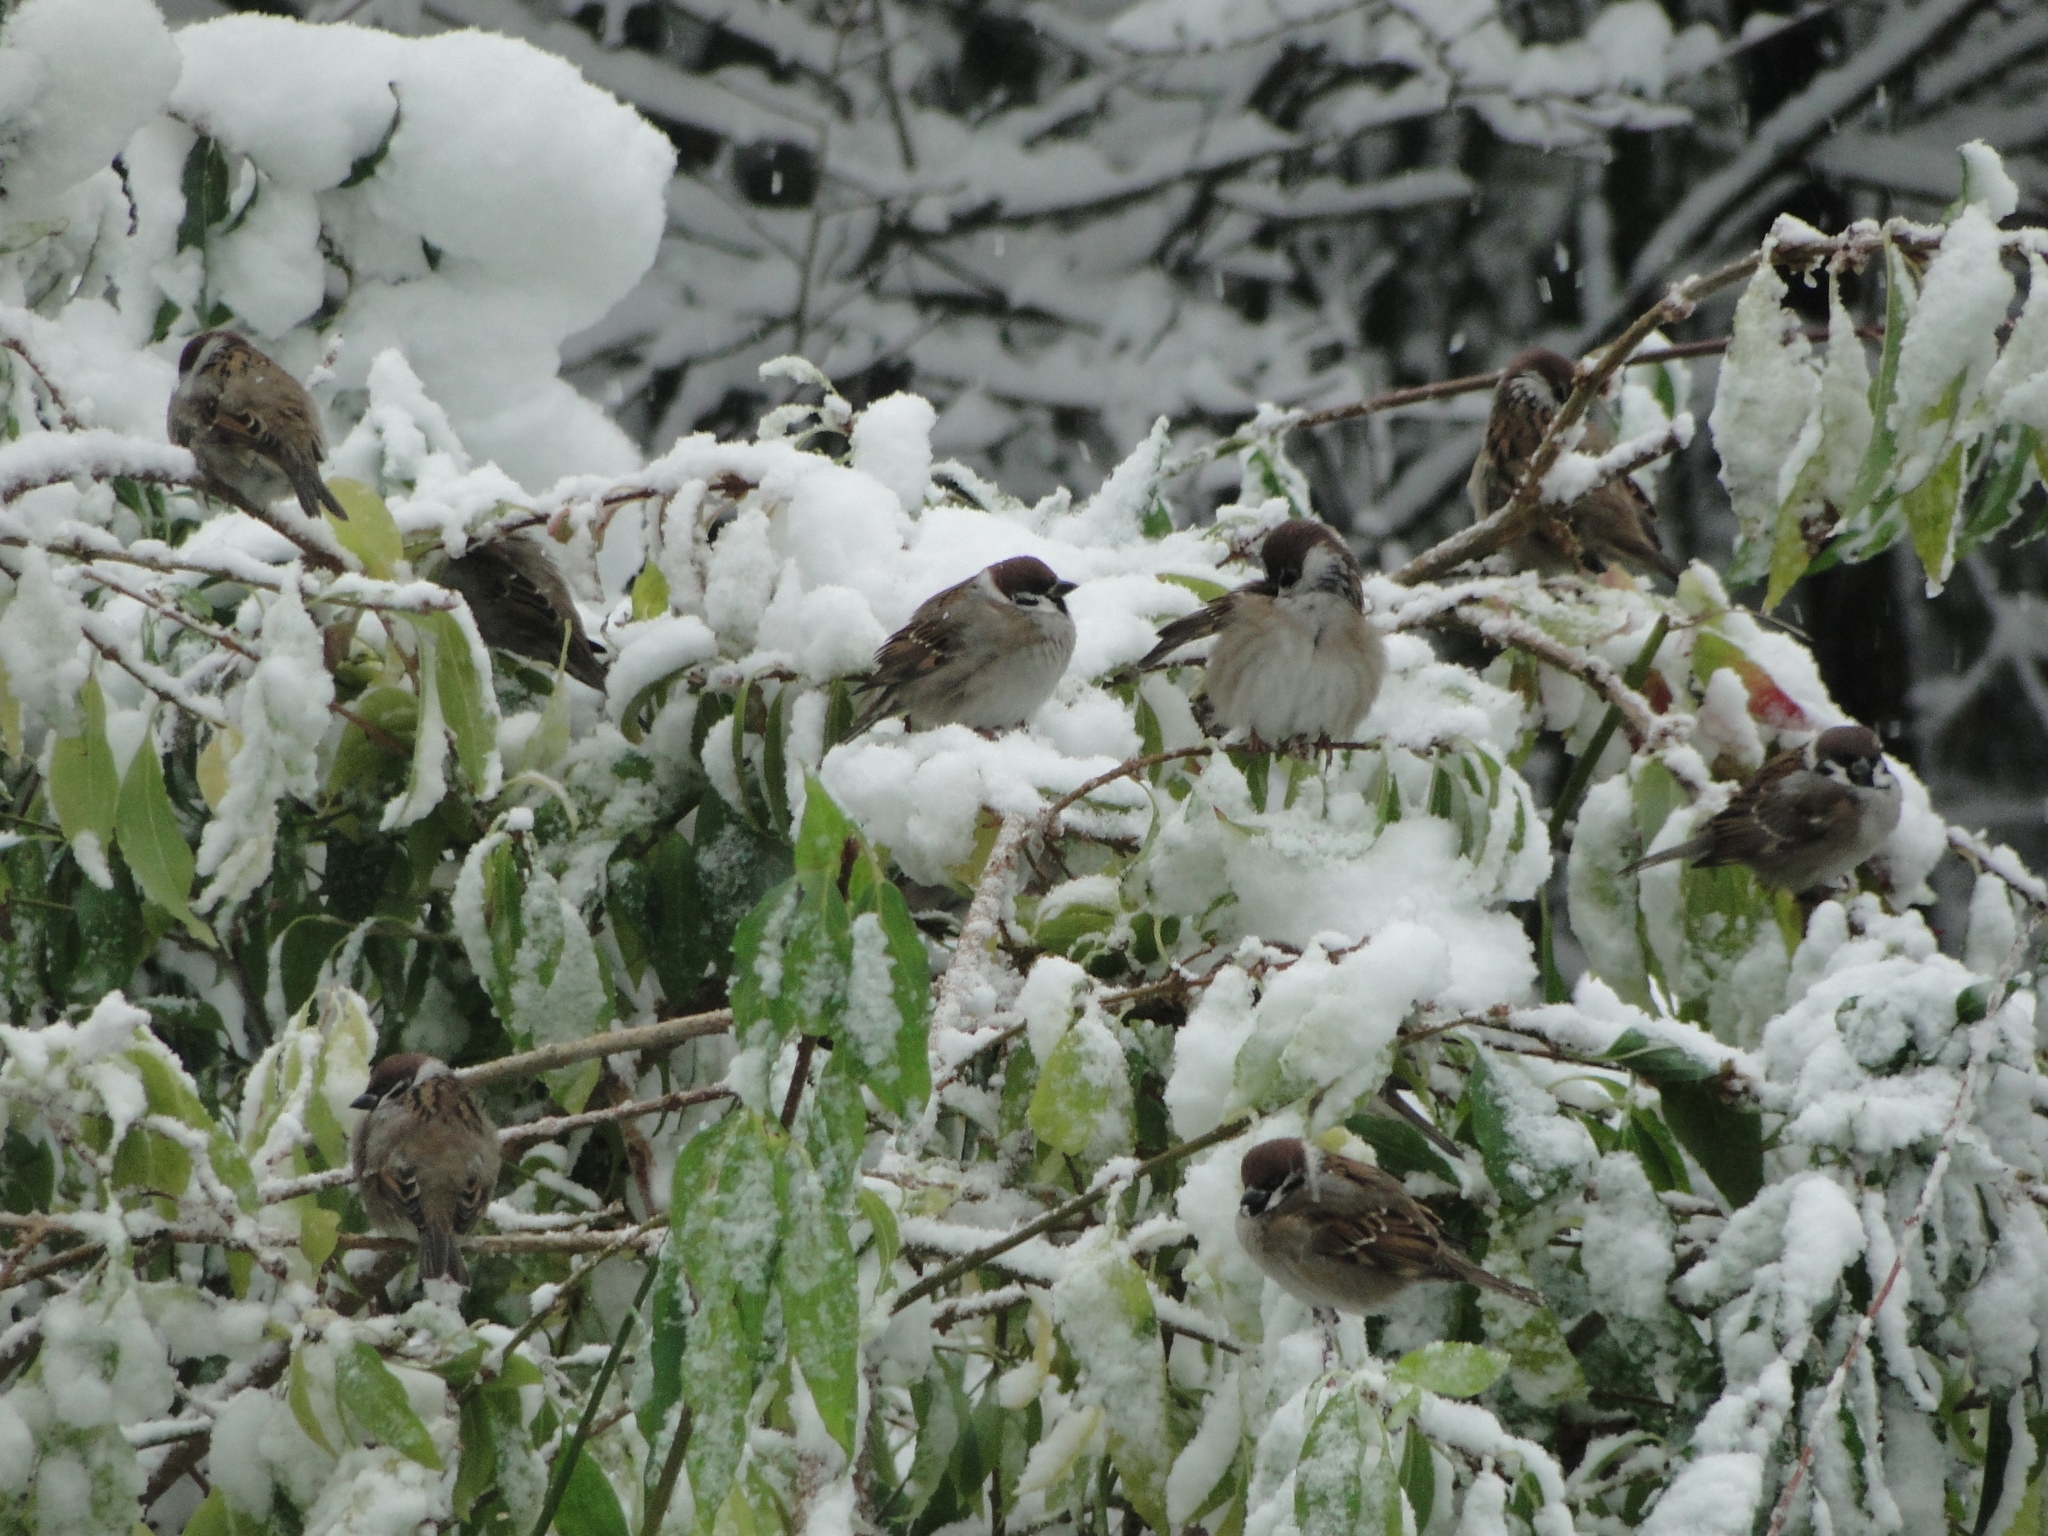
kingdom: Animalia
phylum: Chordata
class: Aves
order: Passeriformes
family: Passeridae
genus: Passer
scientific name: Passer montanus
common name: Eurasian tree sparrow
